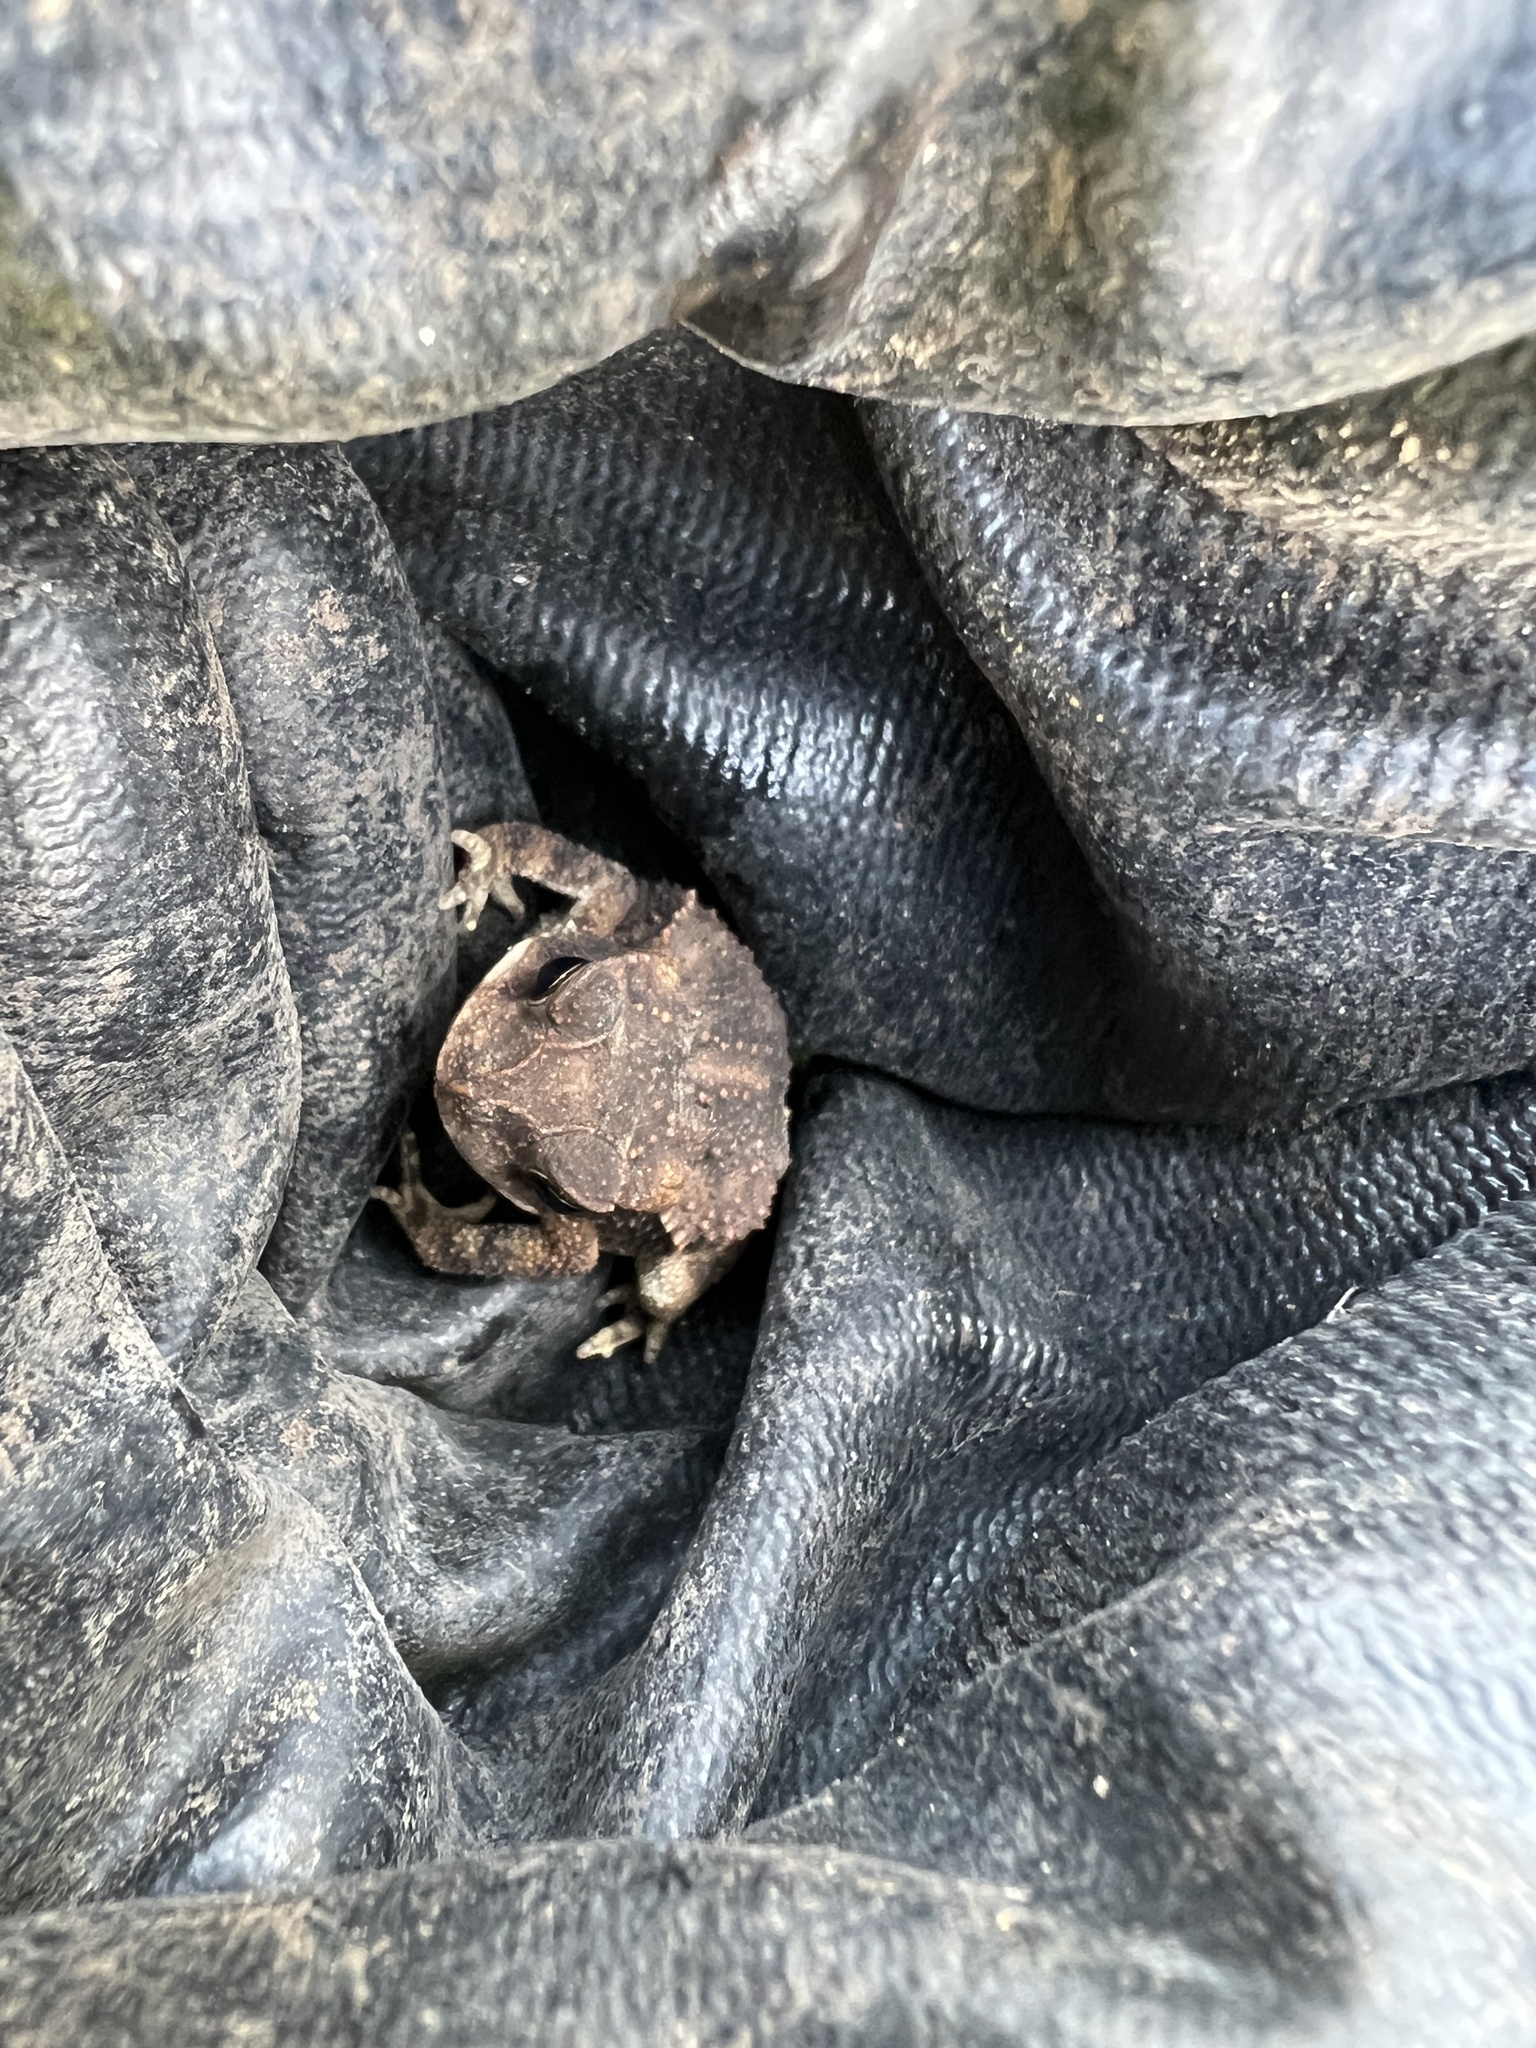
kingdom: Animalia
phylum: Chordata
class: Amphibia
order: Anura
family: Bufonidae
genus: Incilius
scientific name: Incilius nebulifer
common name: Gulf coast toad
